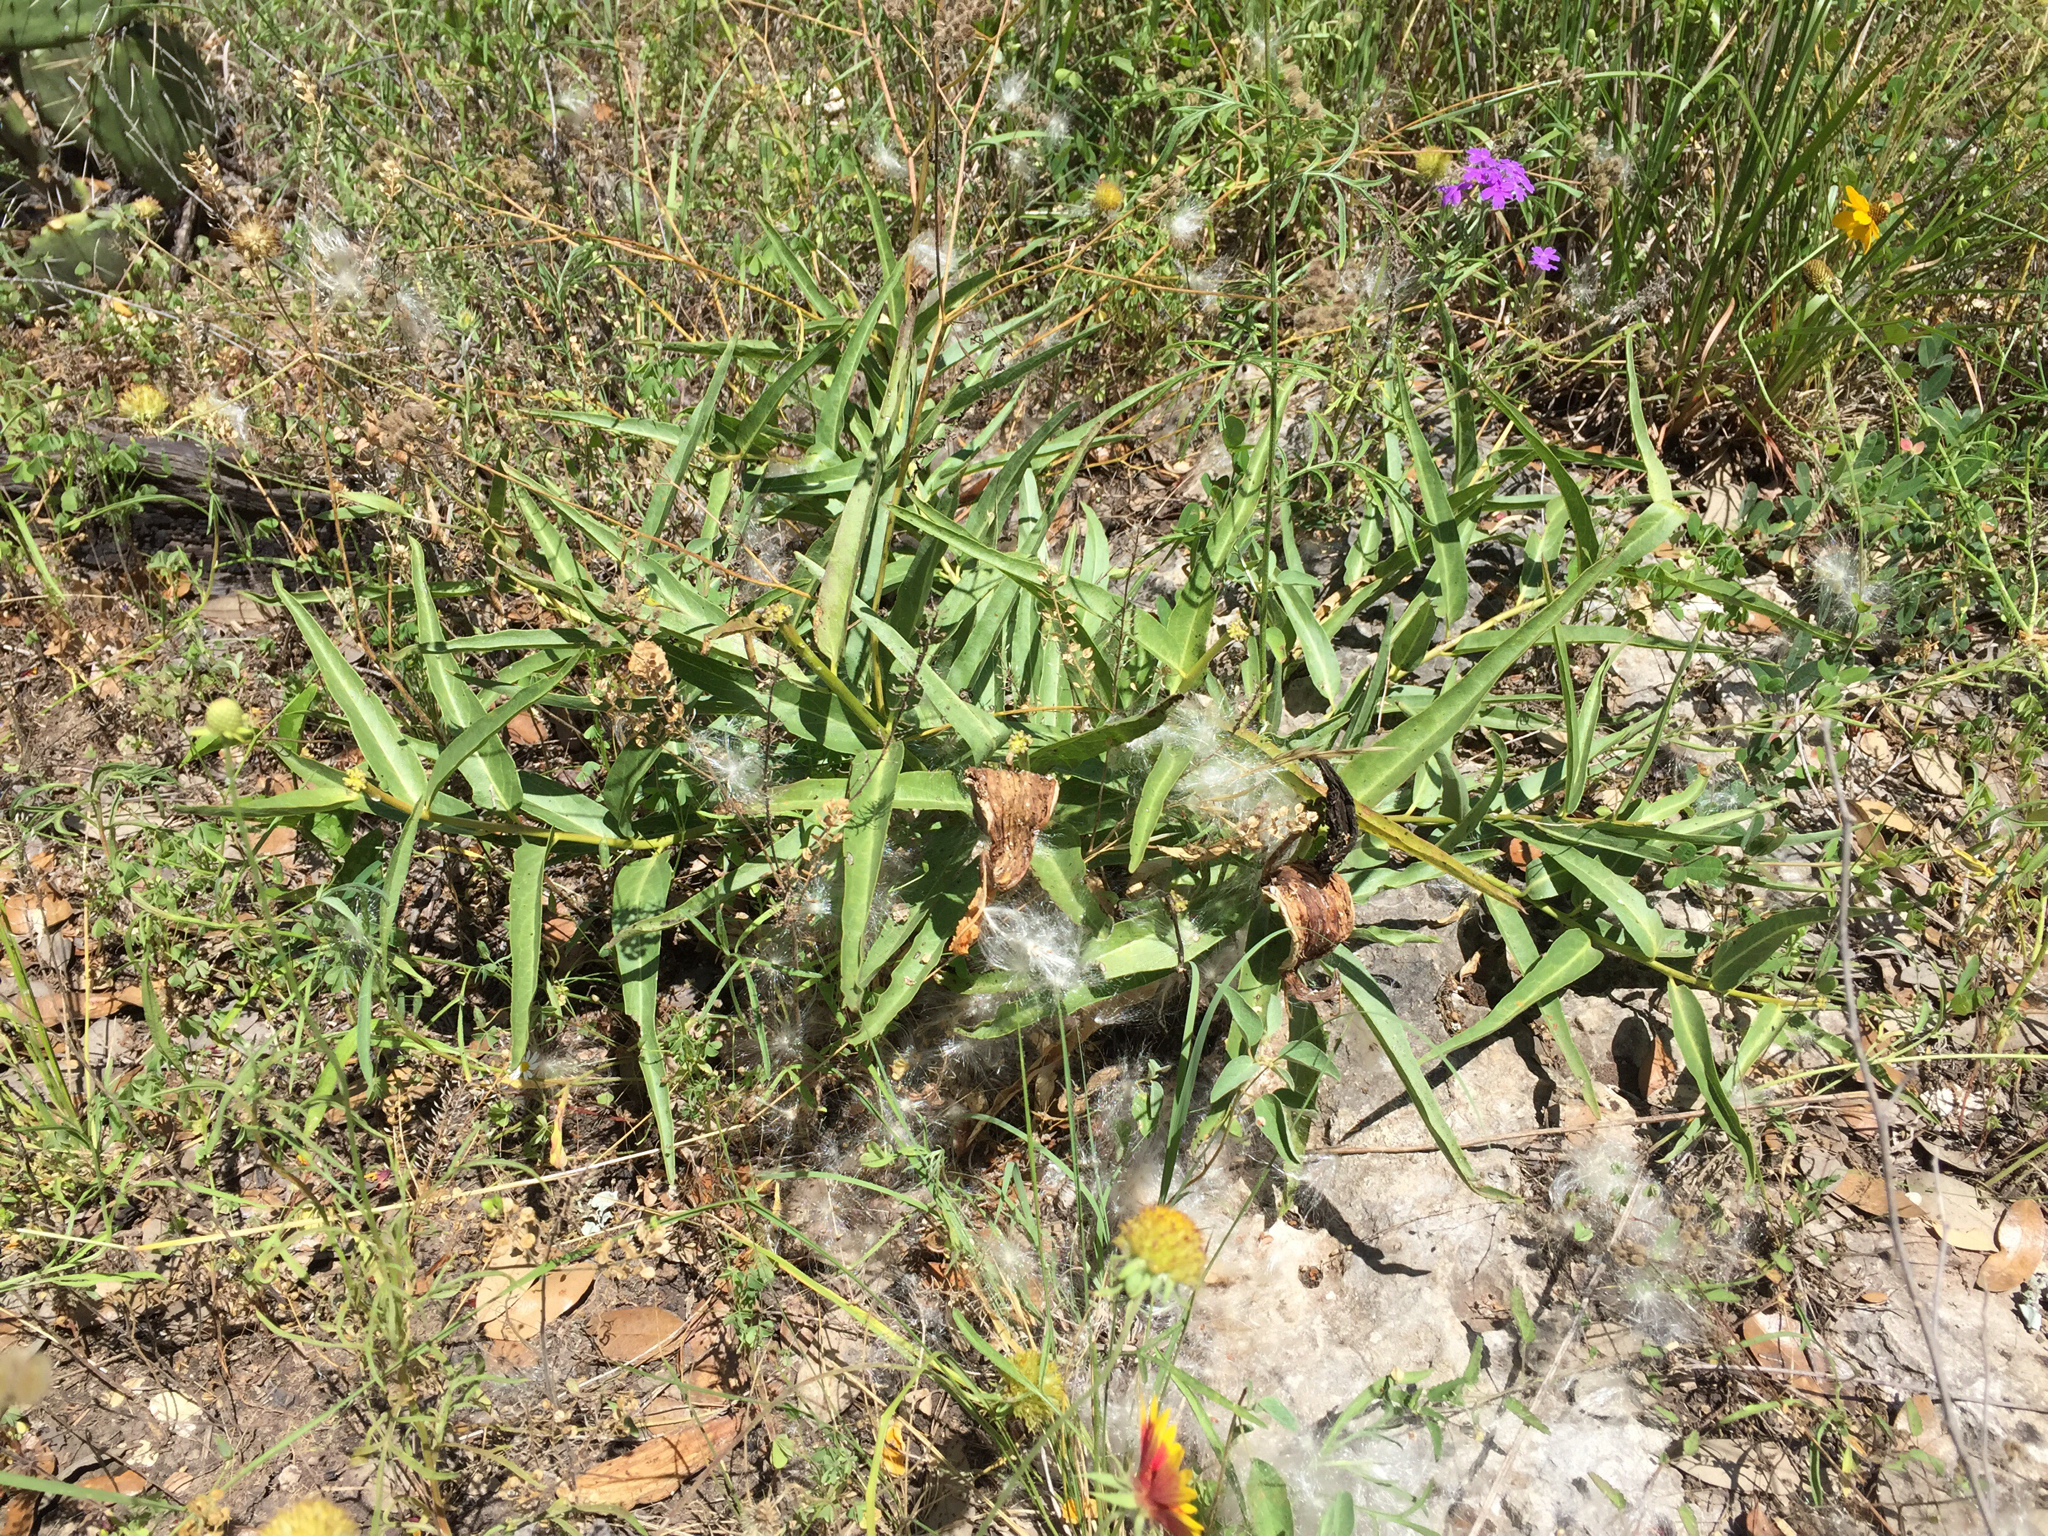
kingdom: Plantae
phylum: Tracheophyta
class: Magnoliopsida
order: Gentianales
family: Apocynaceae
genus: Asclepias
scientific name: Asclepias asperula
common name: Antelope horns
